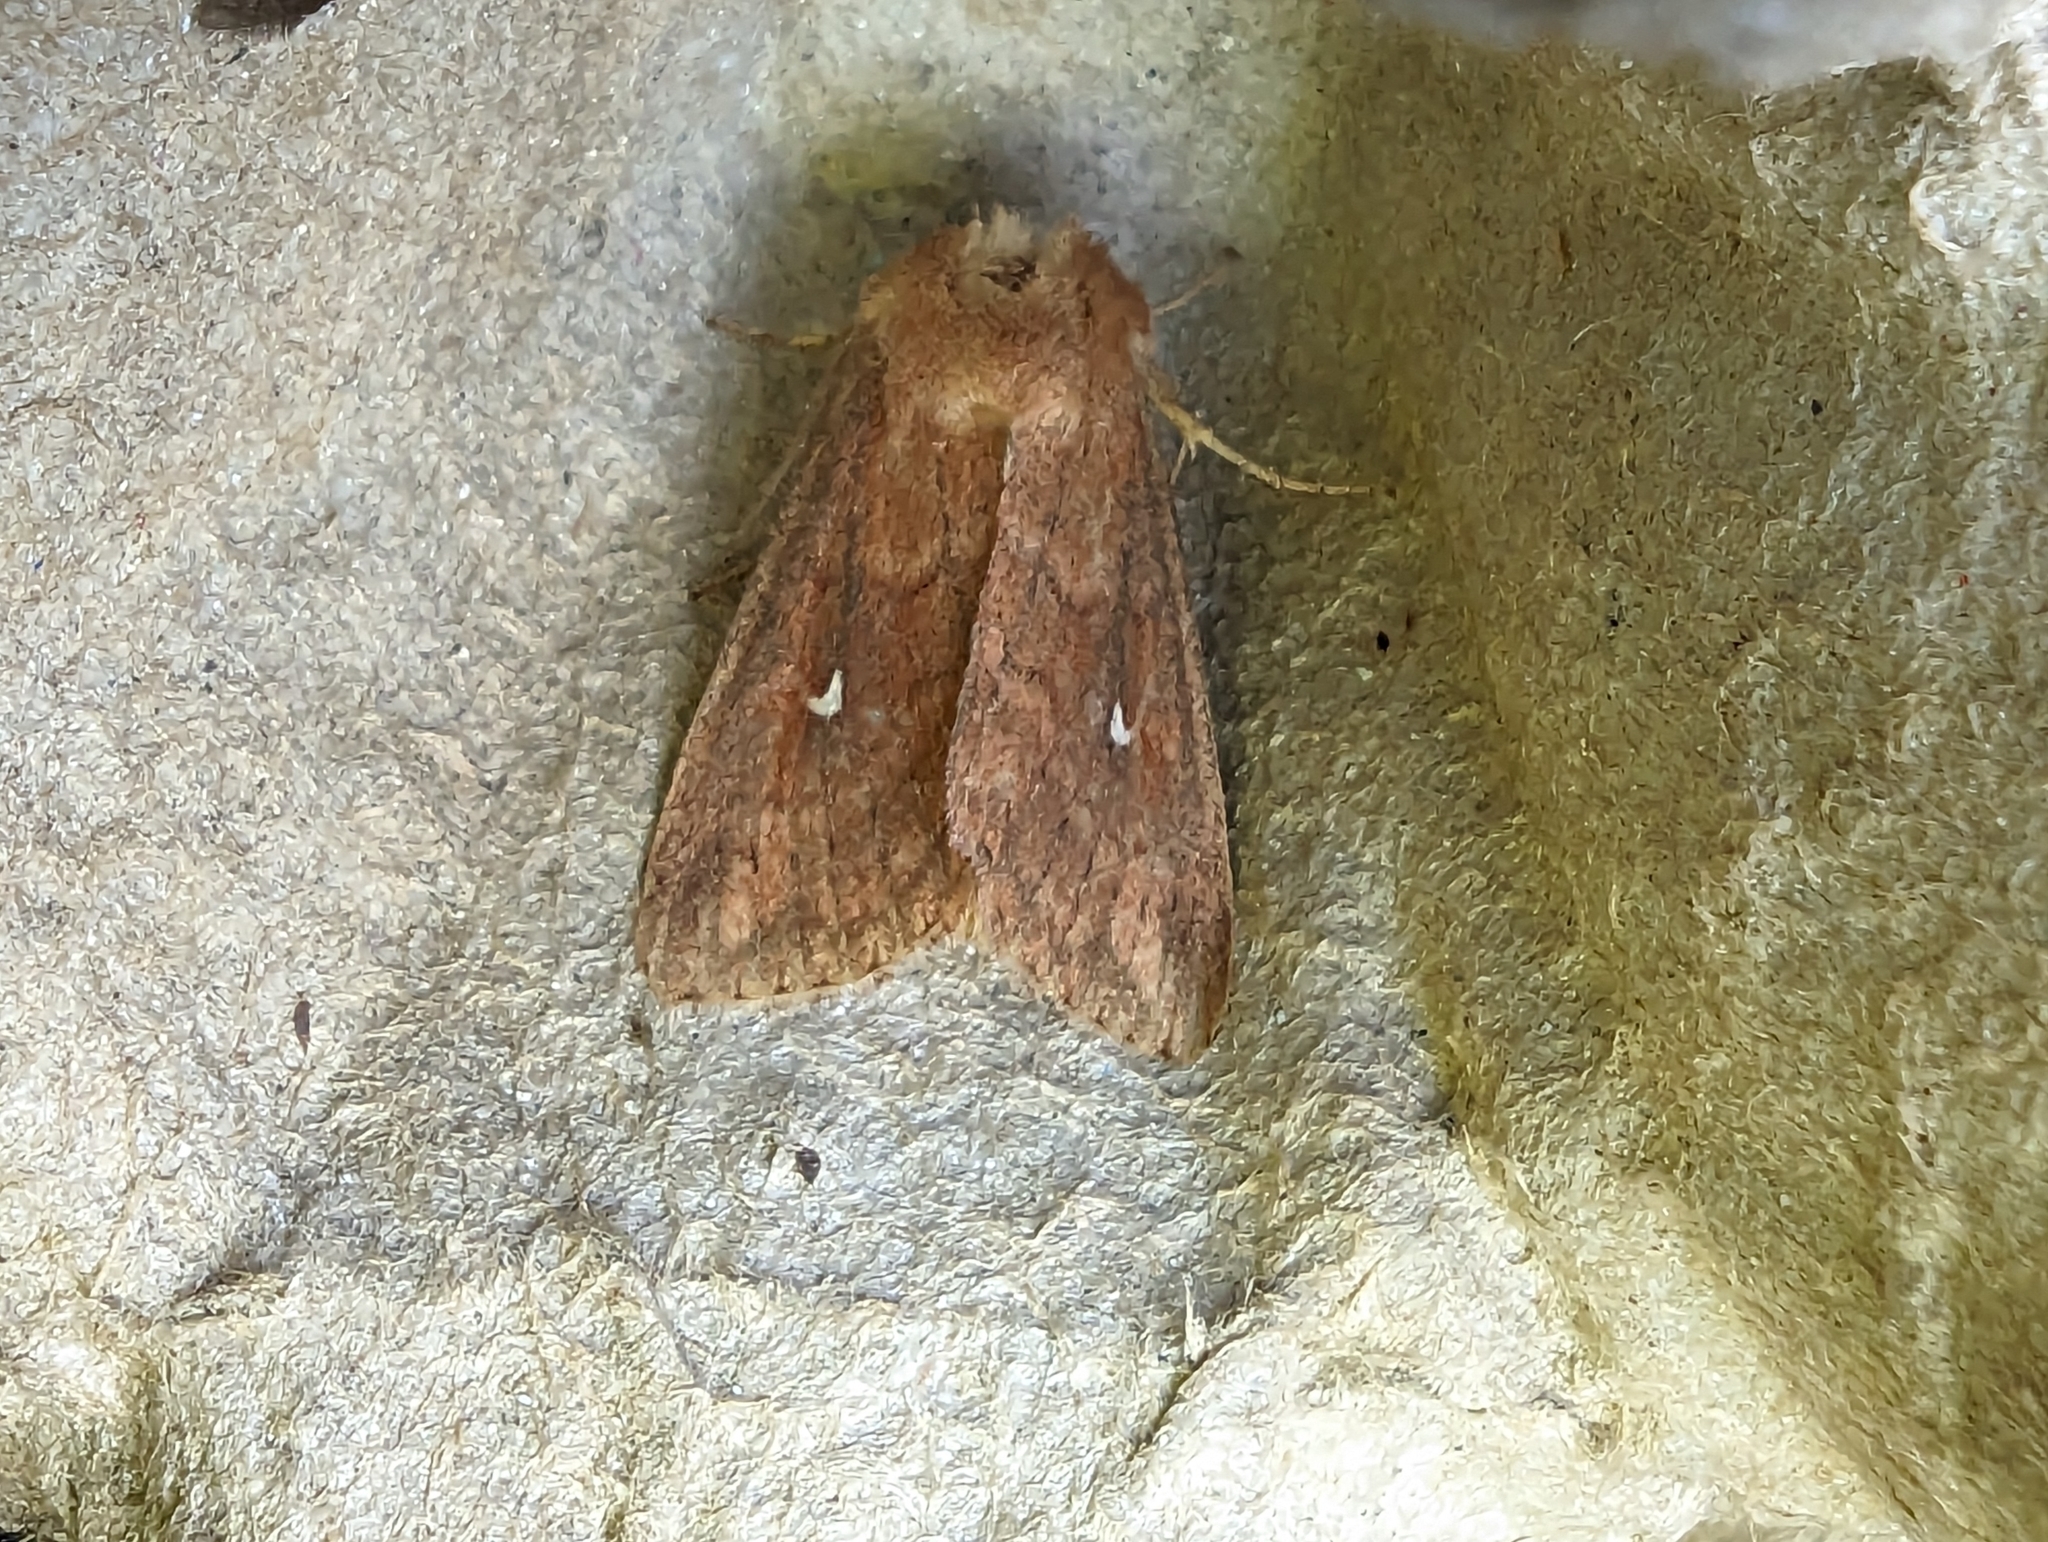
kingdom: Animalia
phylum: Arthropoda
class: Insecta
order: Lepidoptera
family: Noctuidae
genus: Mythimna
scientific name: Mythimna albipuncta
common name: White-point
